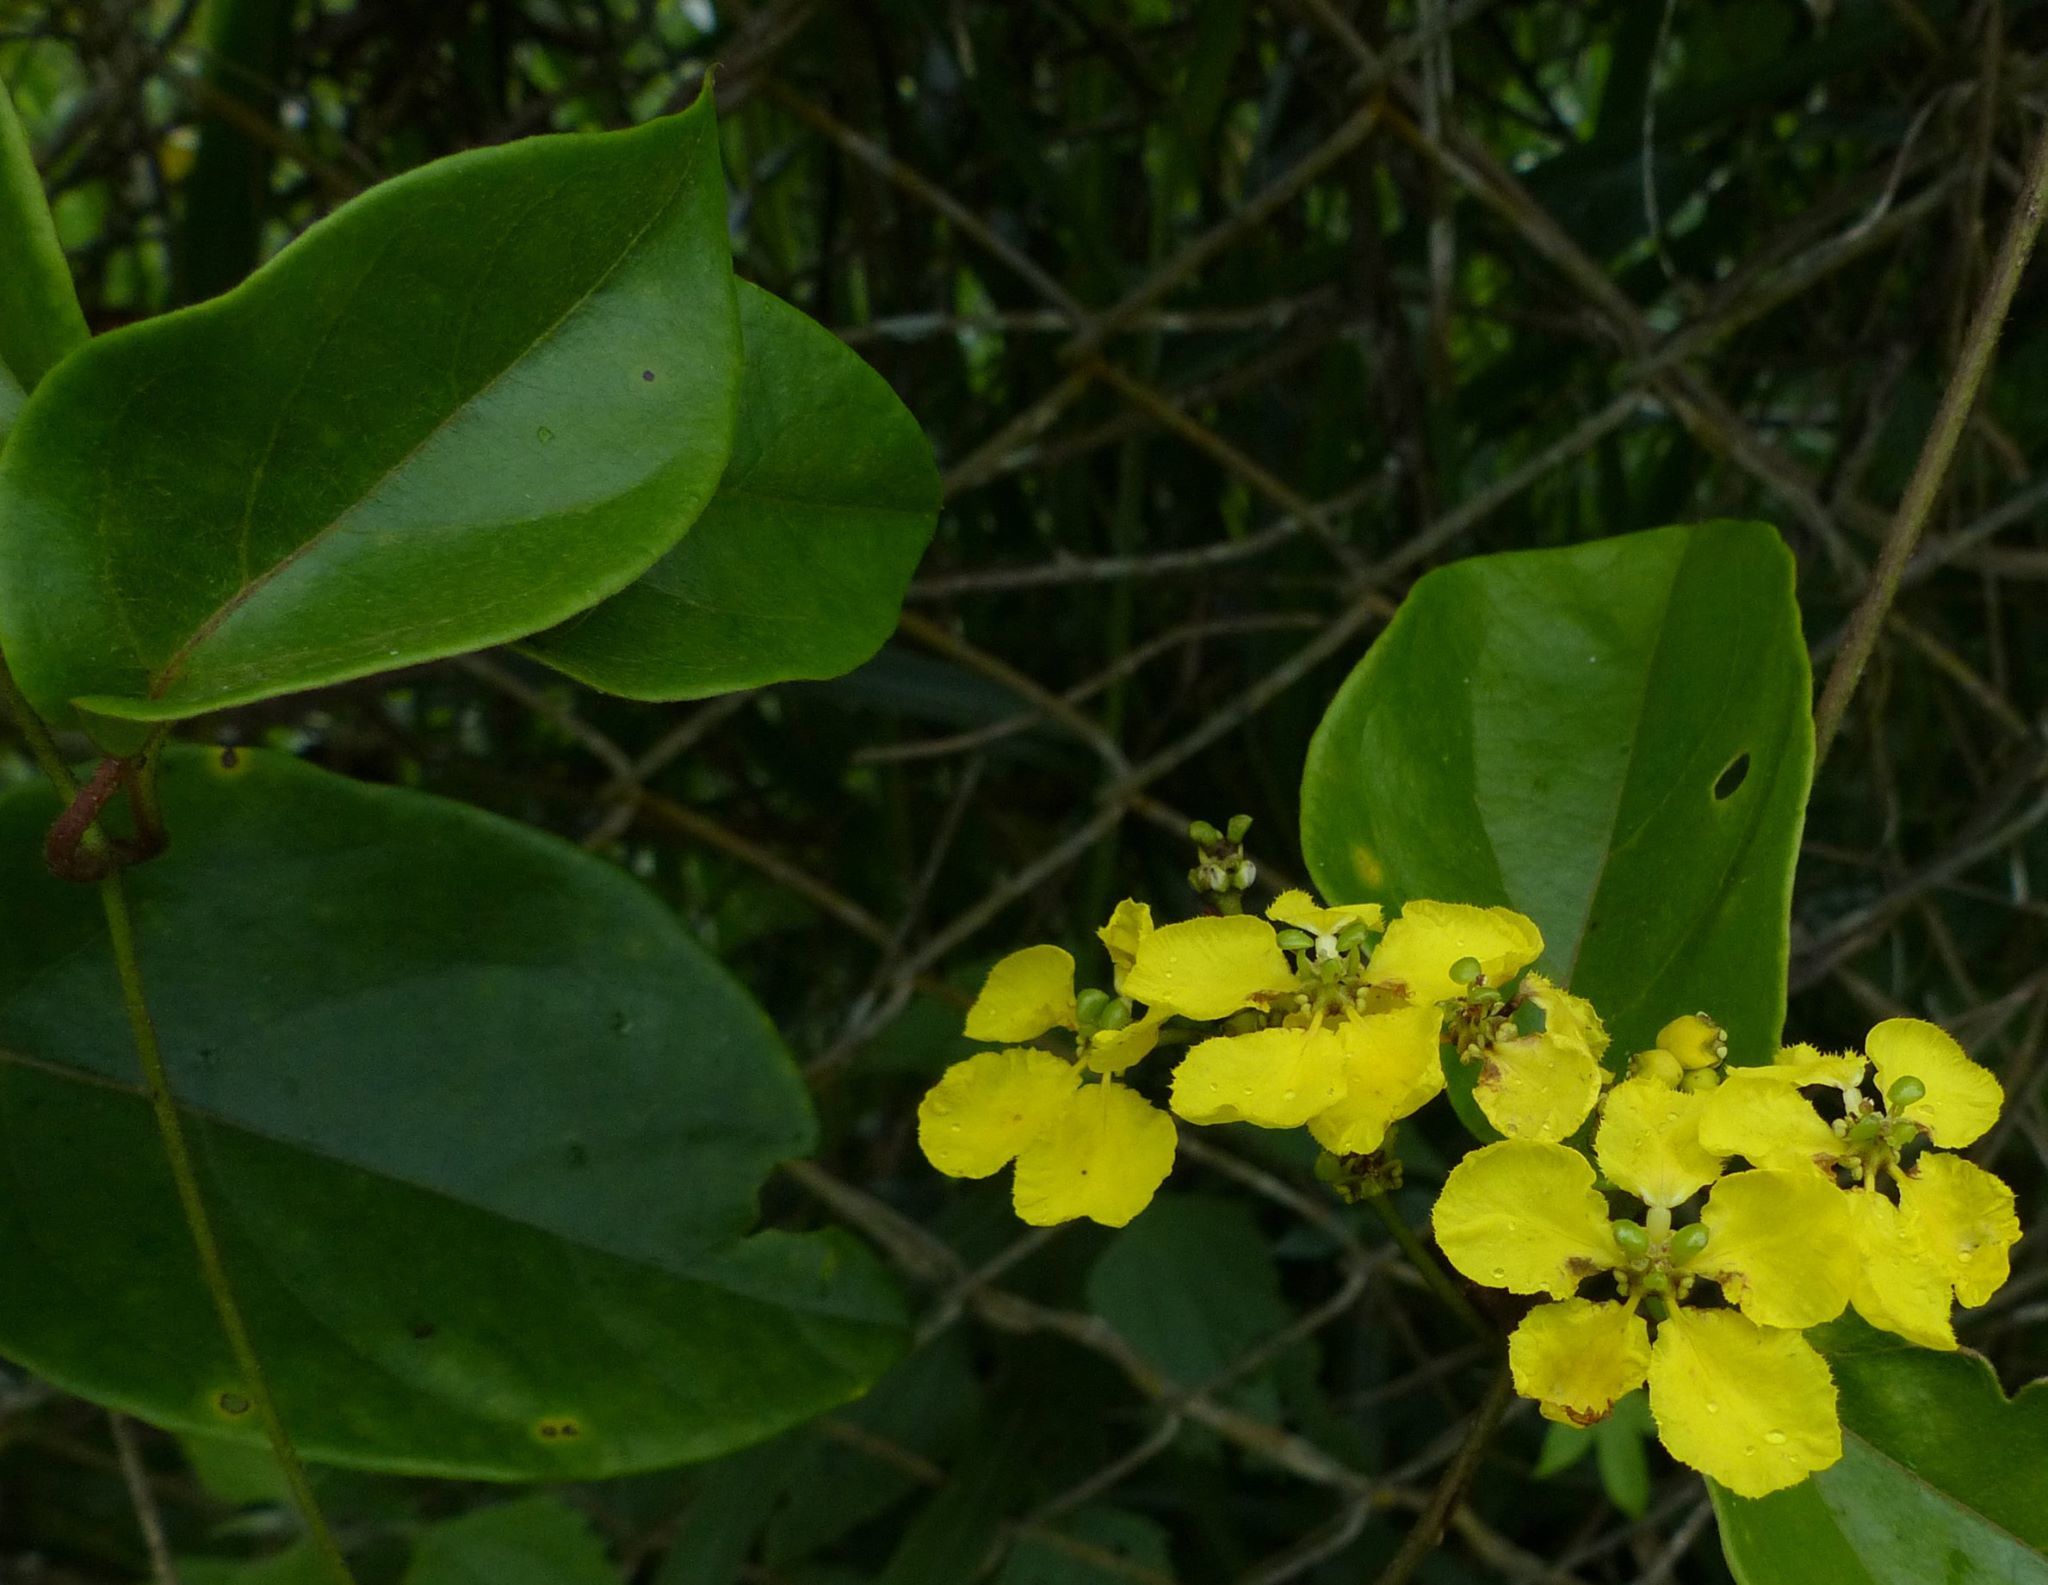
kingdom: Plantae
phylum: Tracheophyta
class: Magnoliopsida
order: Malpighiales
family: Malpighiaceae
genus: Stigmaphyllon
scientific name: Stigmaphyllon blanchetii
